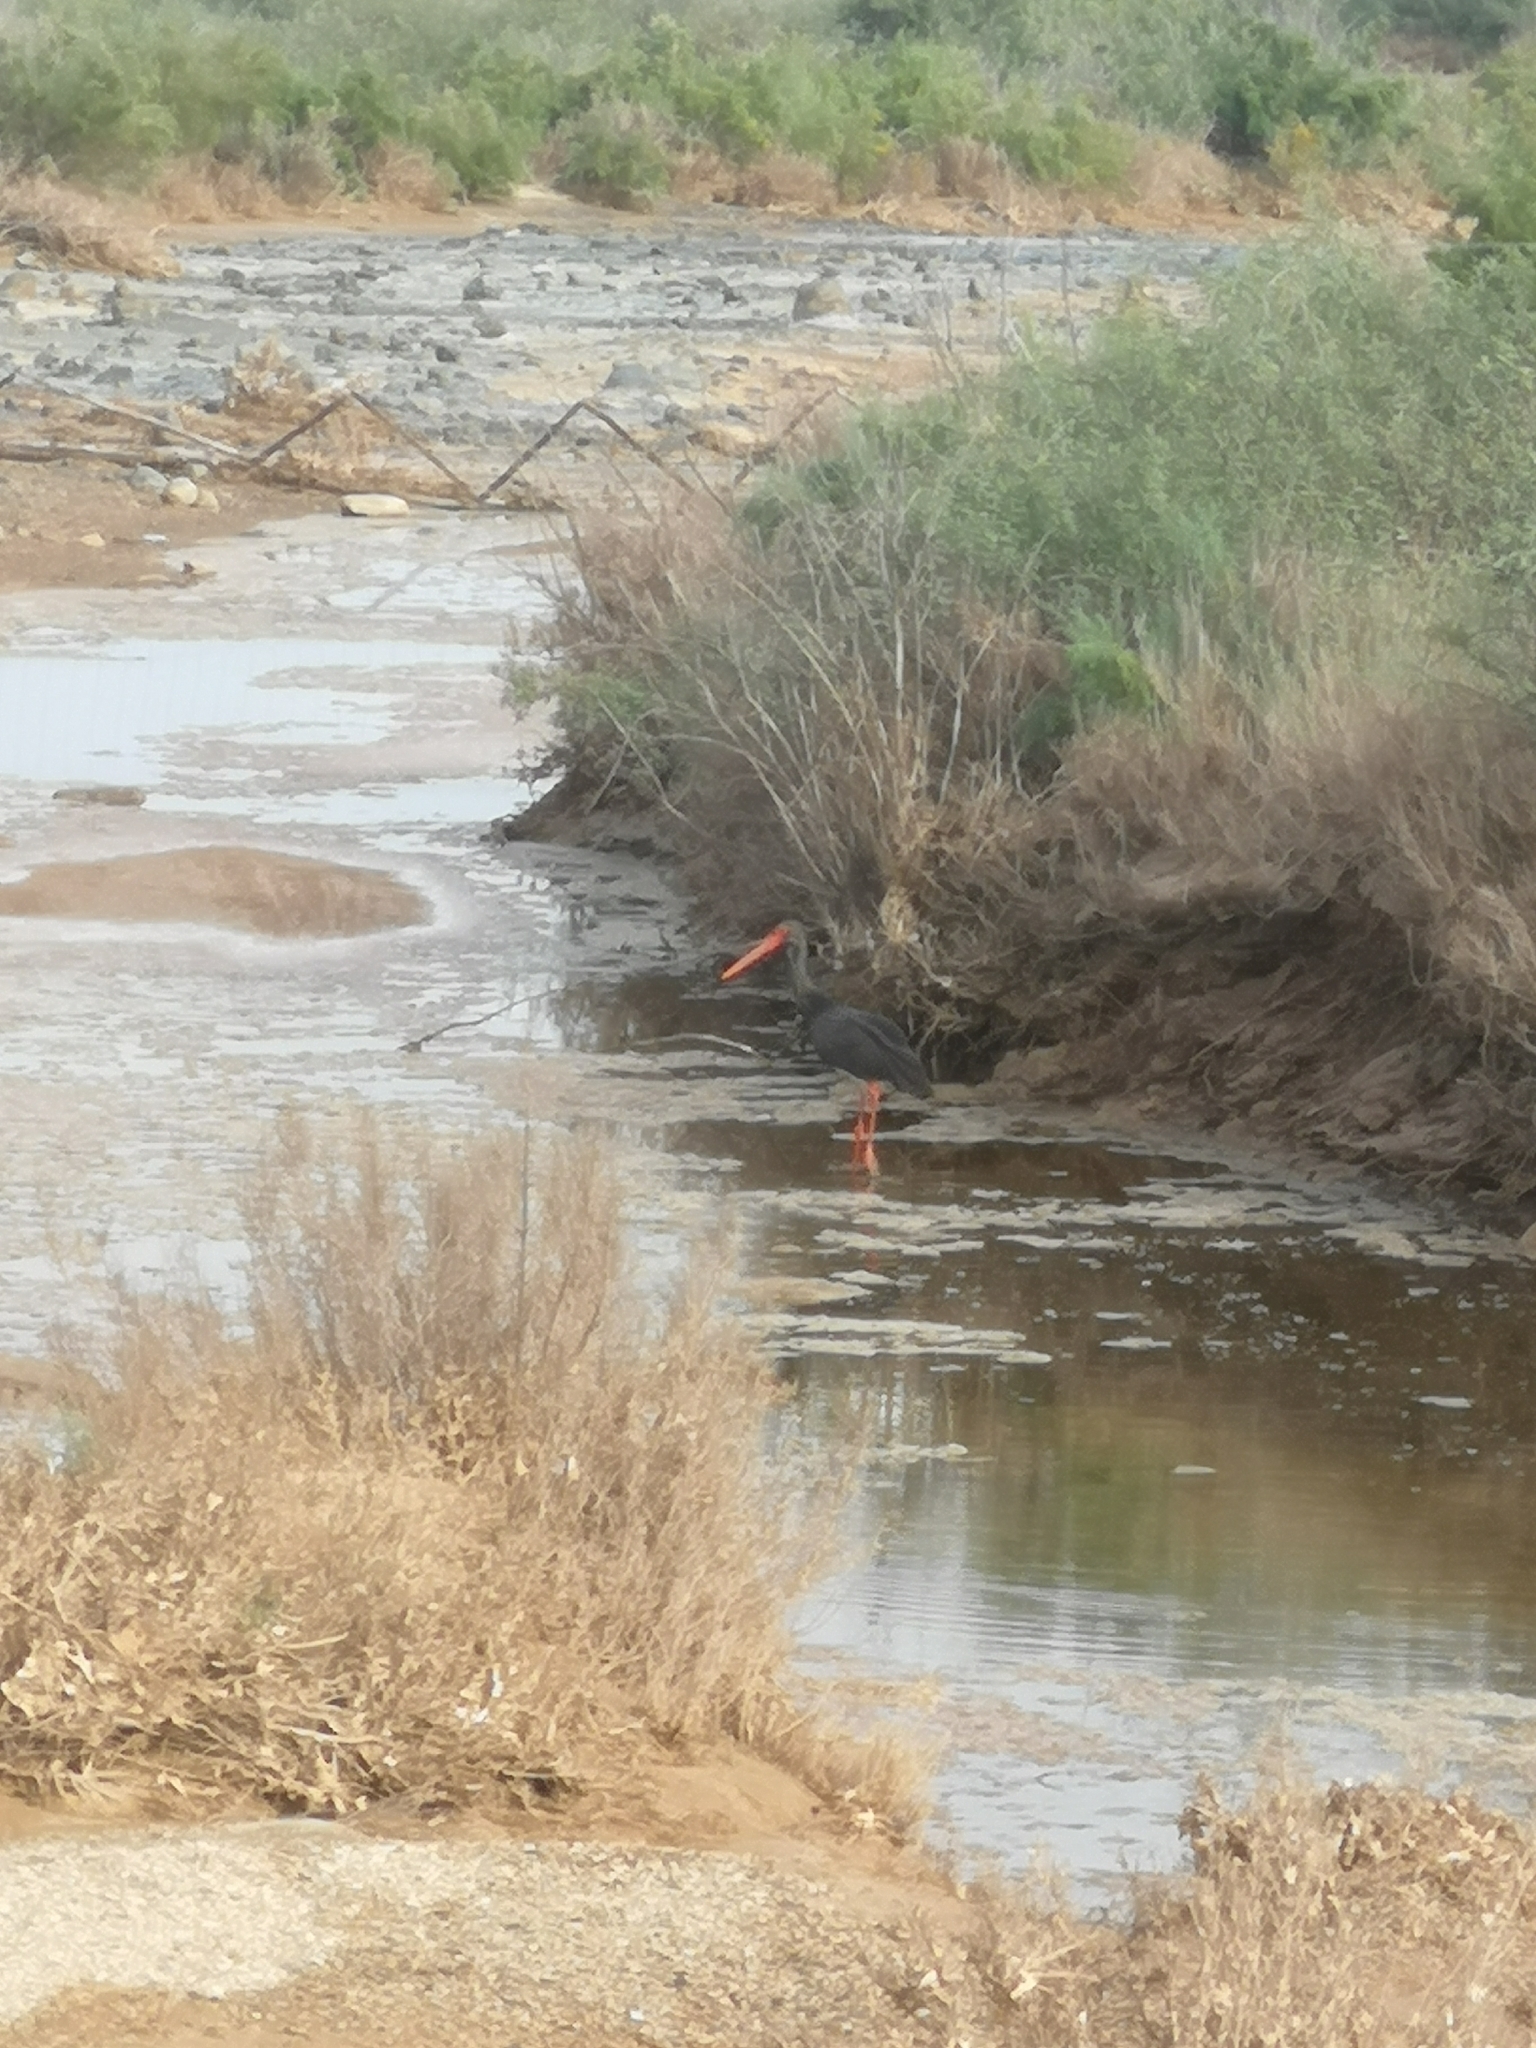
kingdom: Animalia
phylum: Chordata
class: Aves
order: Ciconiiformes
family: Ciconiidae
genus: Ciconia
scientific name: Ciconia nigra
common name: Black stork
